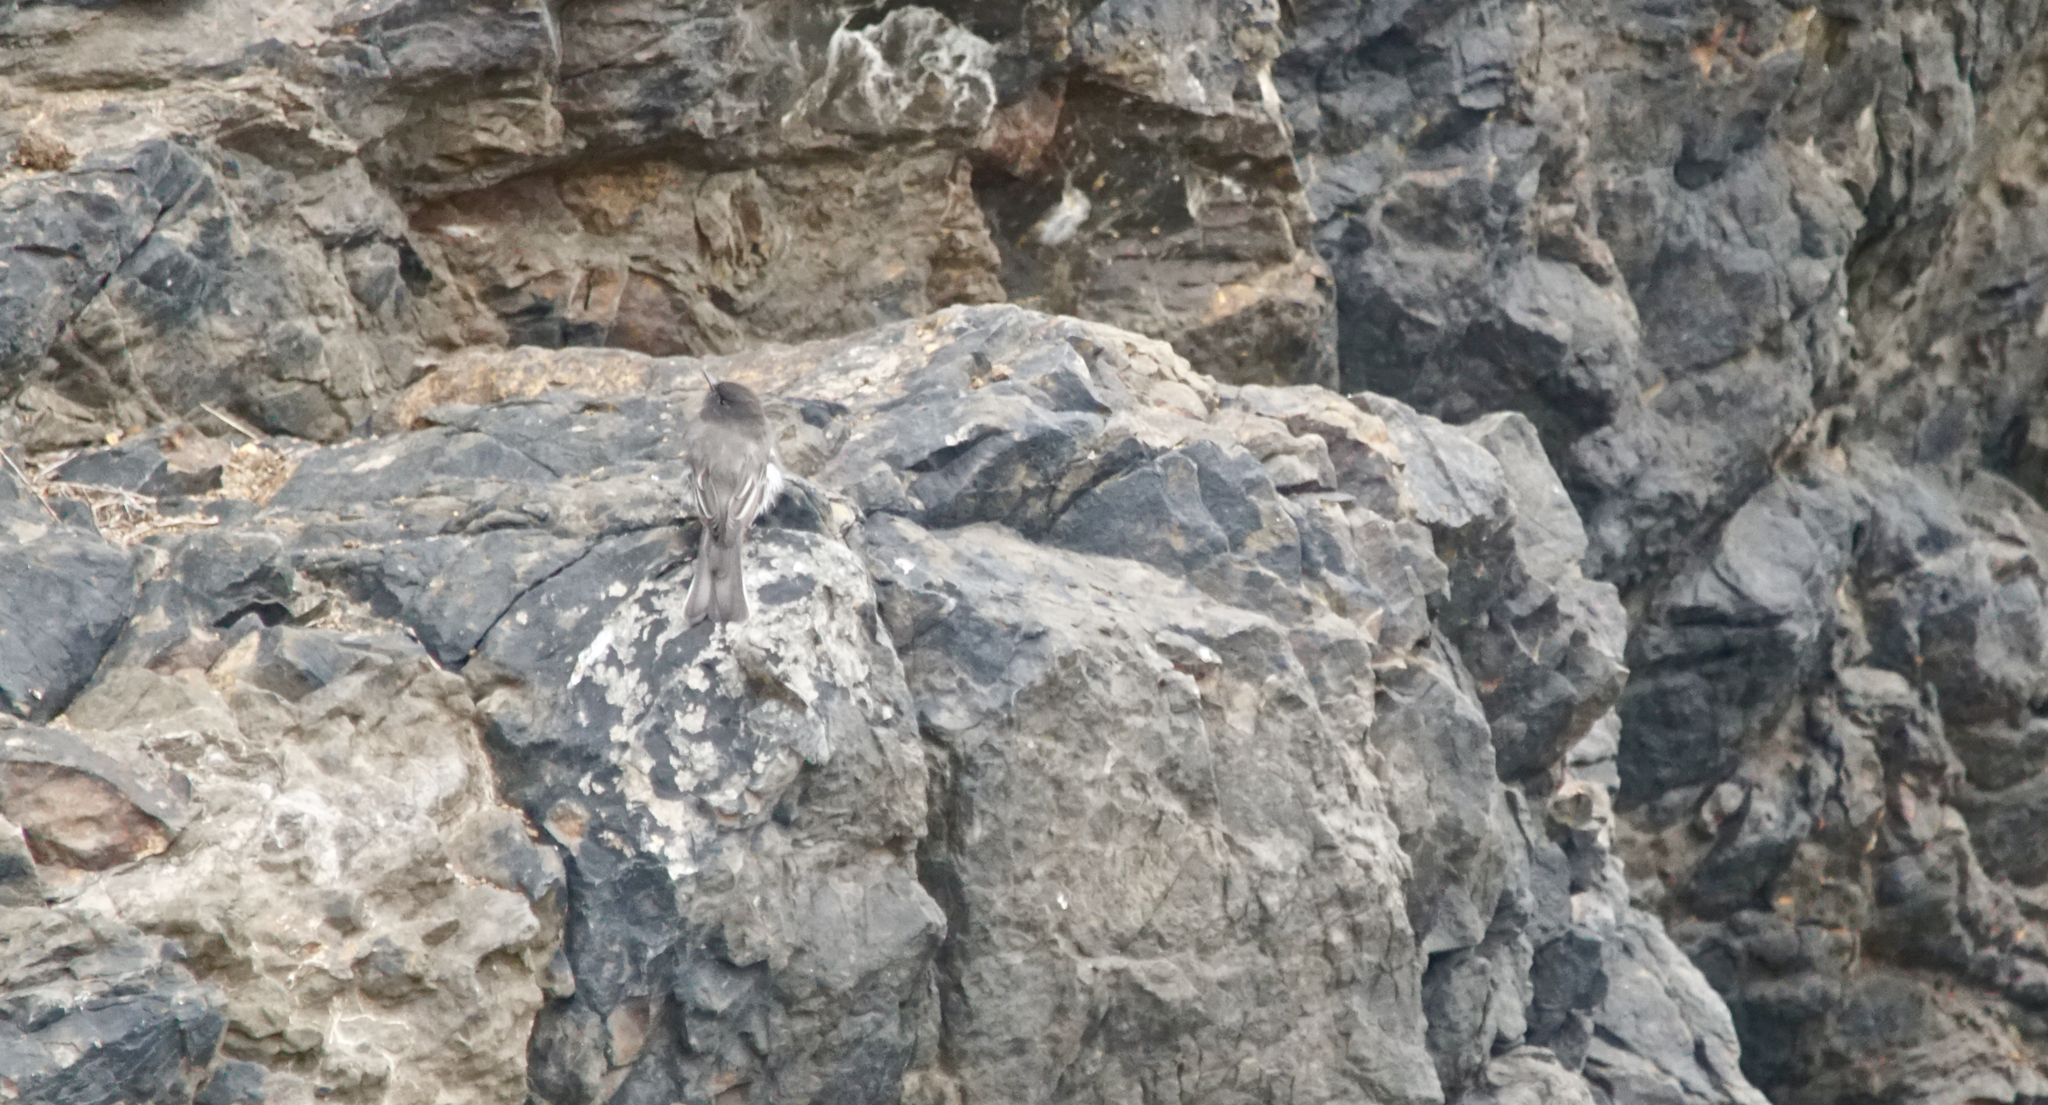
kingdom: Animalia
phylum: Chordata
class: Aves
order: Passeriformes
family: Tyrannidae
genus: Sayornis
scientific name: Sayornis nigricans
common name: Black phoebe
